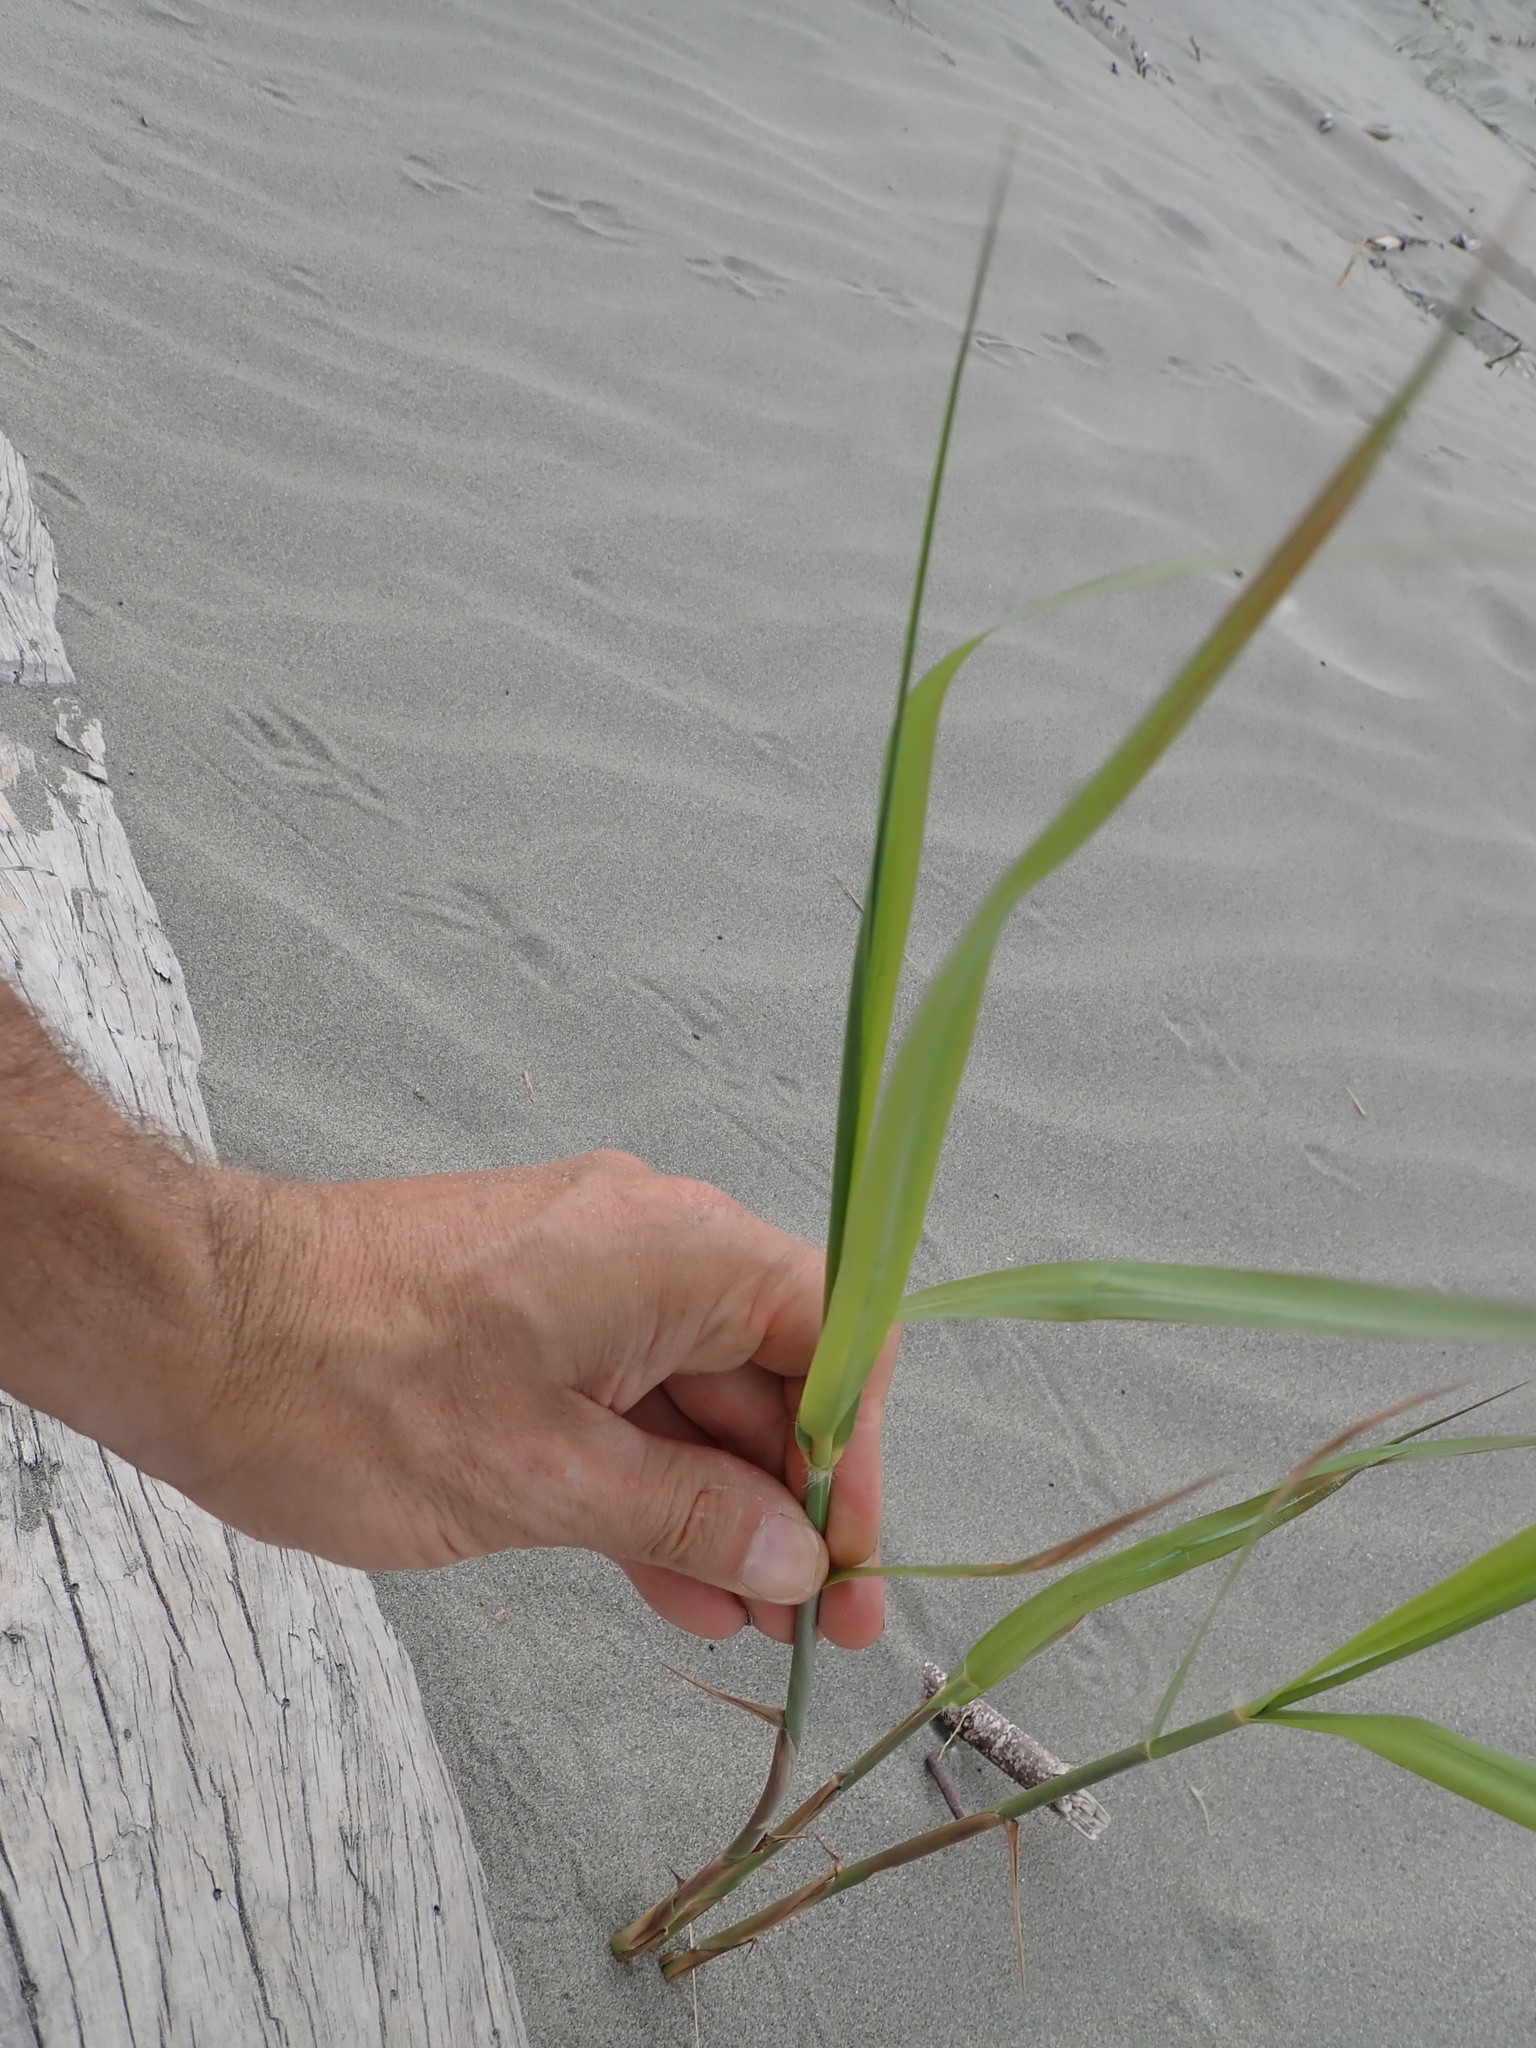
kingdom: Plantae
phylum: Tracheophyta
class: Liliopsida
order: Poales
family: Poaceae
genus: Phragmites
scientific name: Phragmites karka
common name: Tropical reed
